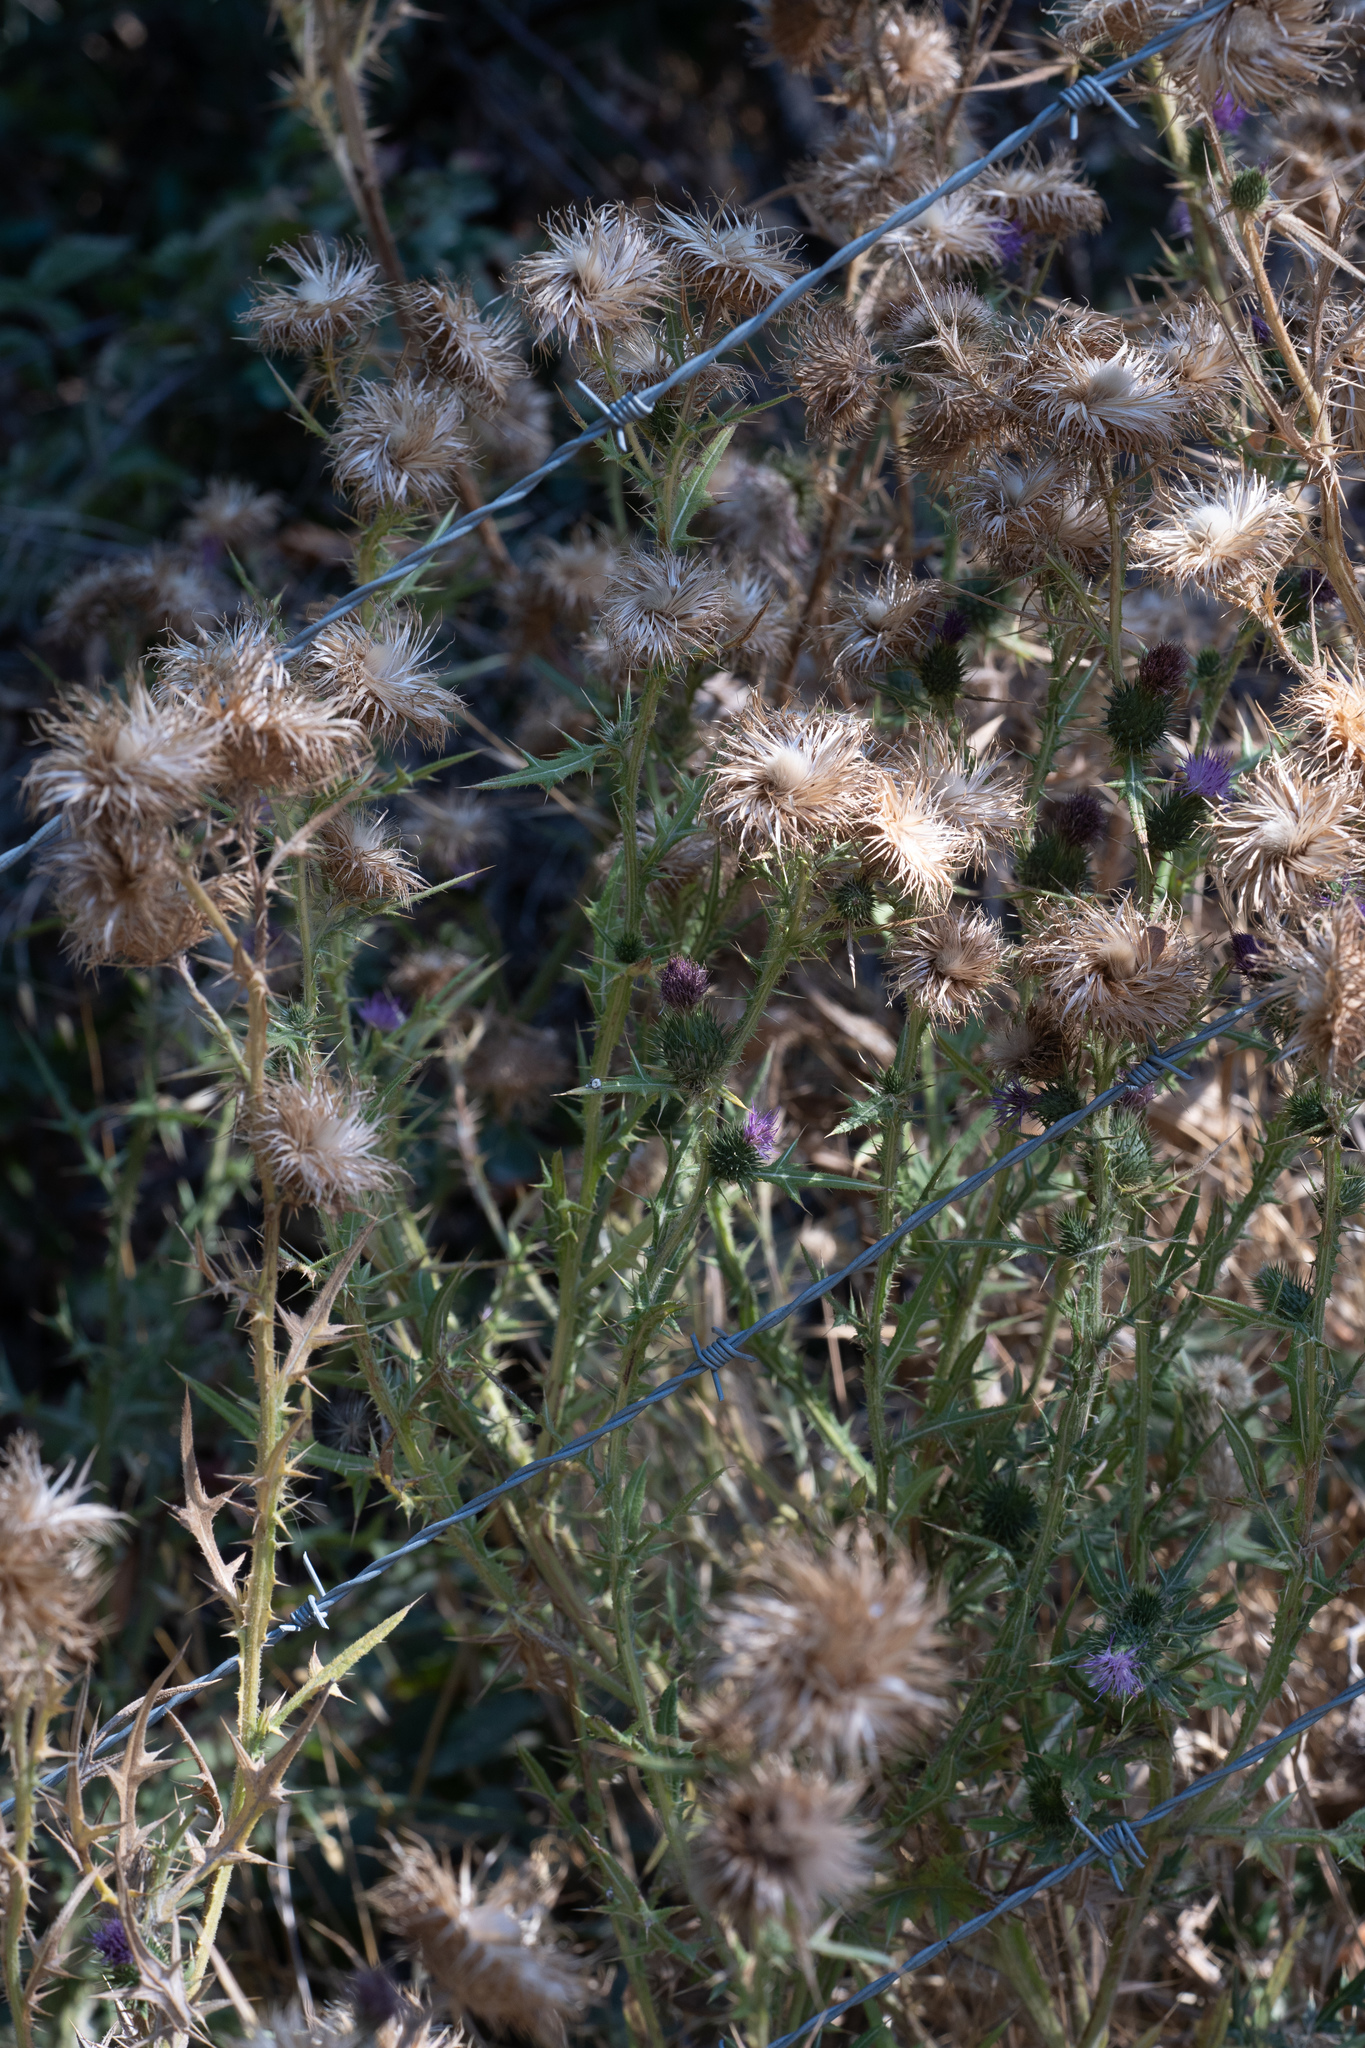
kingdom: Plantae
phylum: Tracheophyta
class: Magnoliopsida
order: Asterales
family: Asteraceae
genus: Cirsium
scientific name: Cirsium vulgare
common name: Bull thistle
